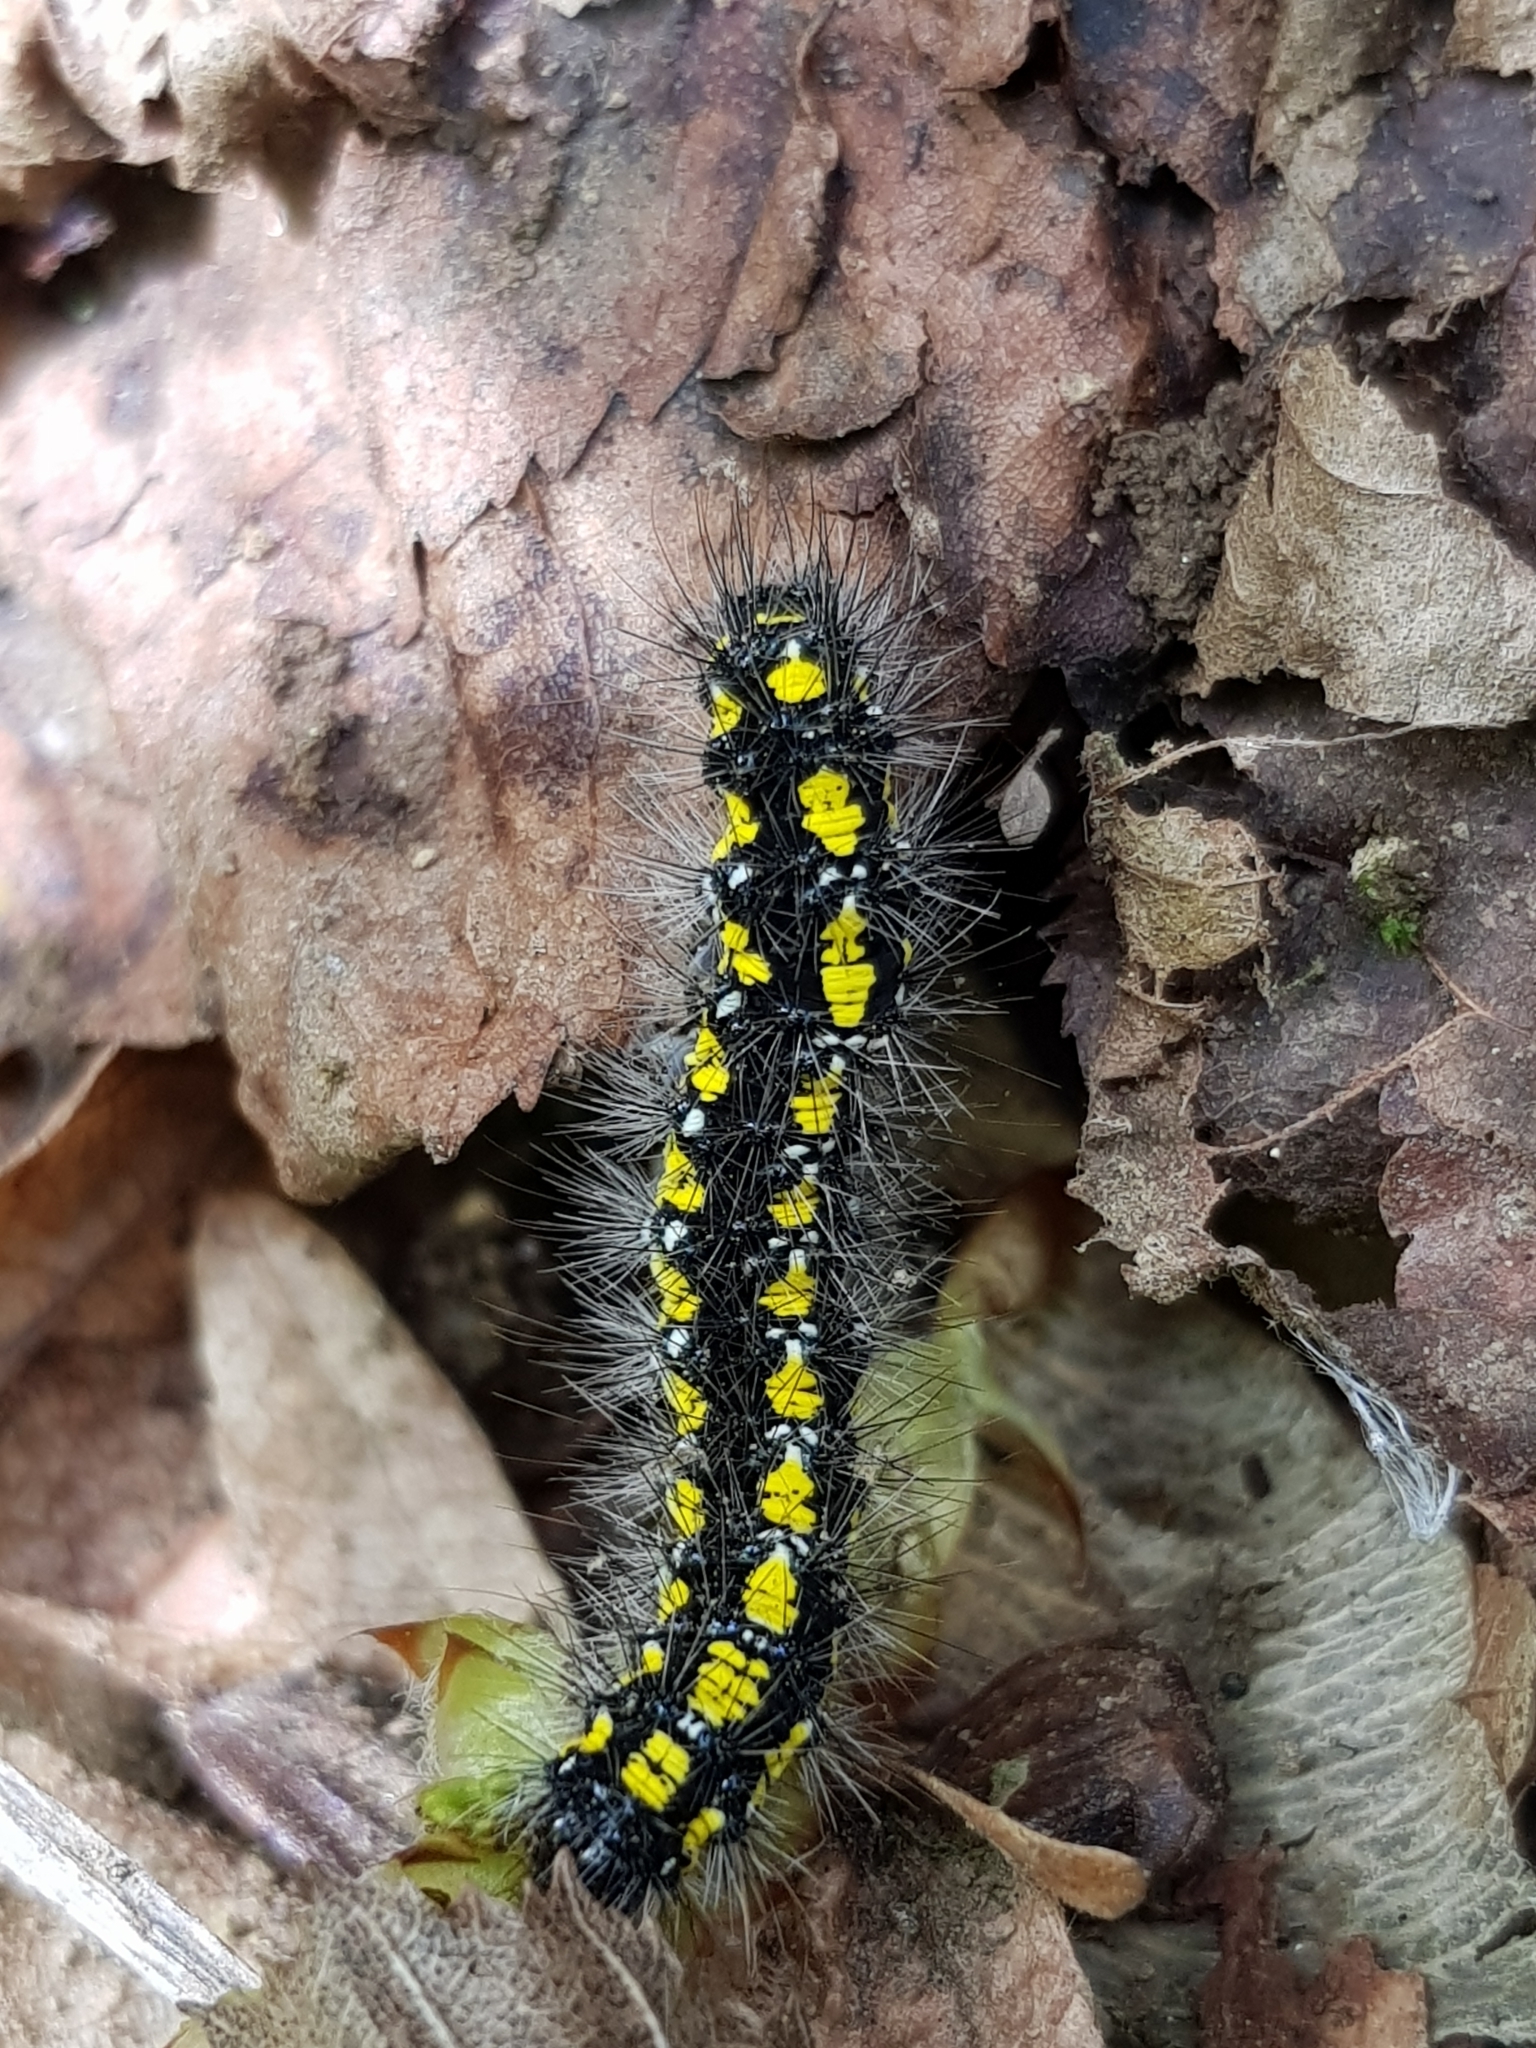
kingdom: Animalia
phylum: Arthropoda
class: Insecta
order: Lepidoptera
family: Erebidae
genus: Callimorpha
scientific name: Callimorpha dominula
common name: Scarlet tiger
